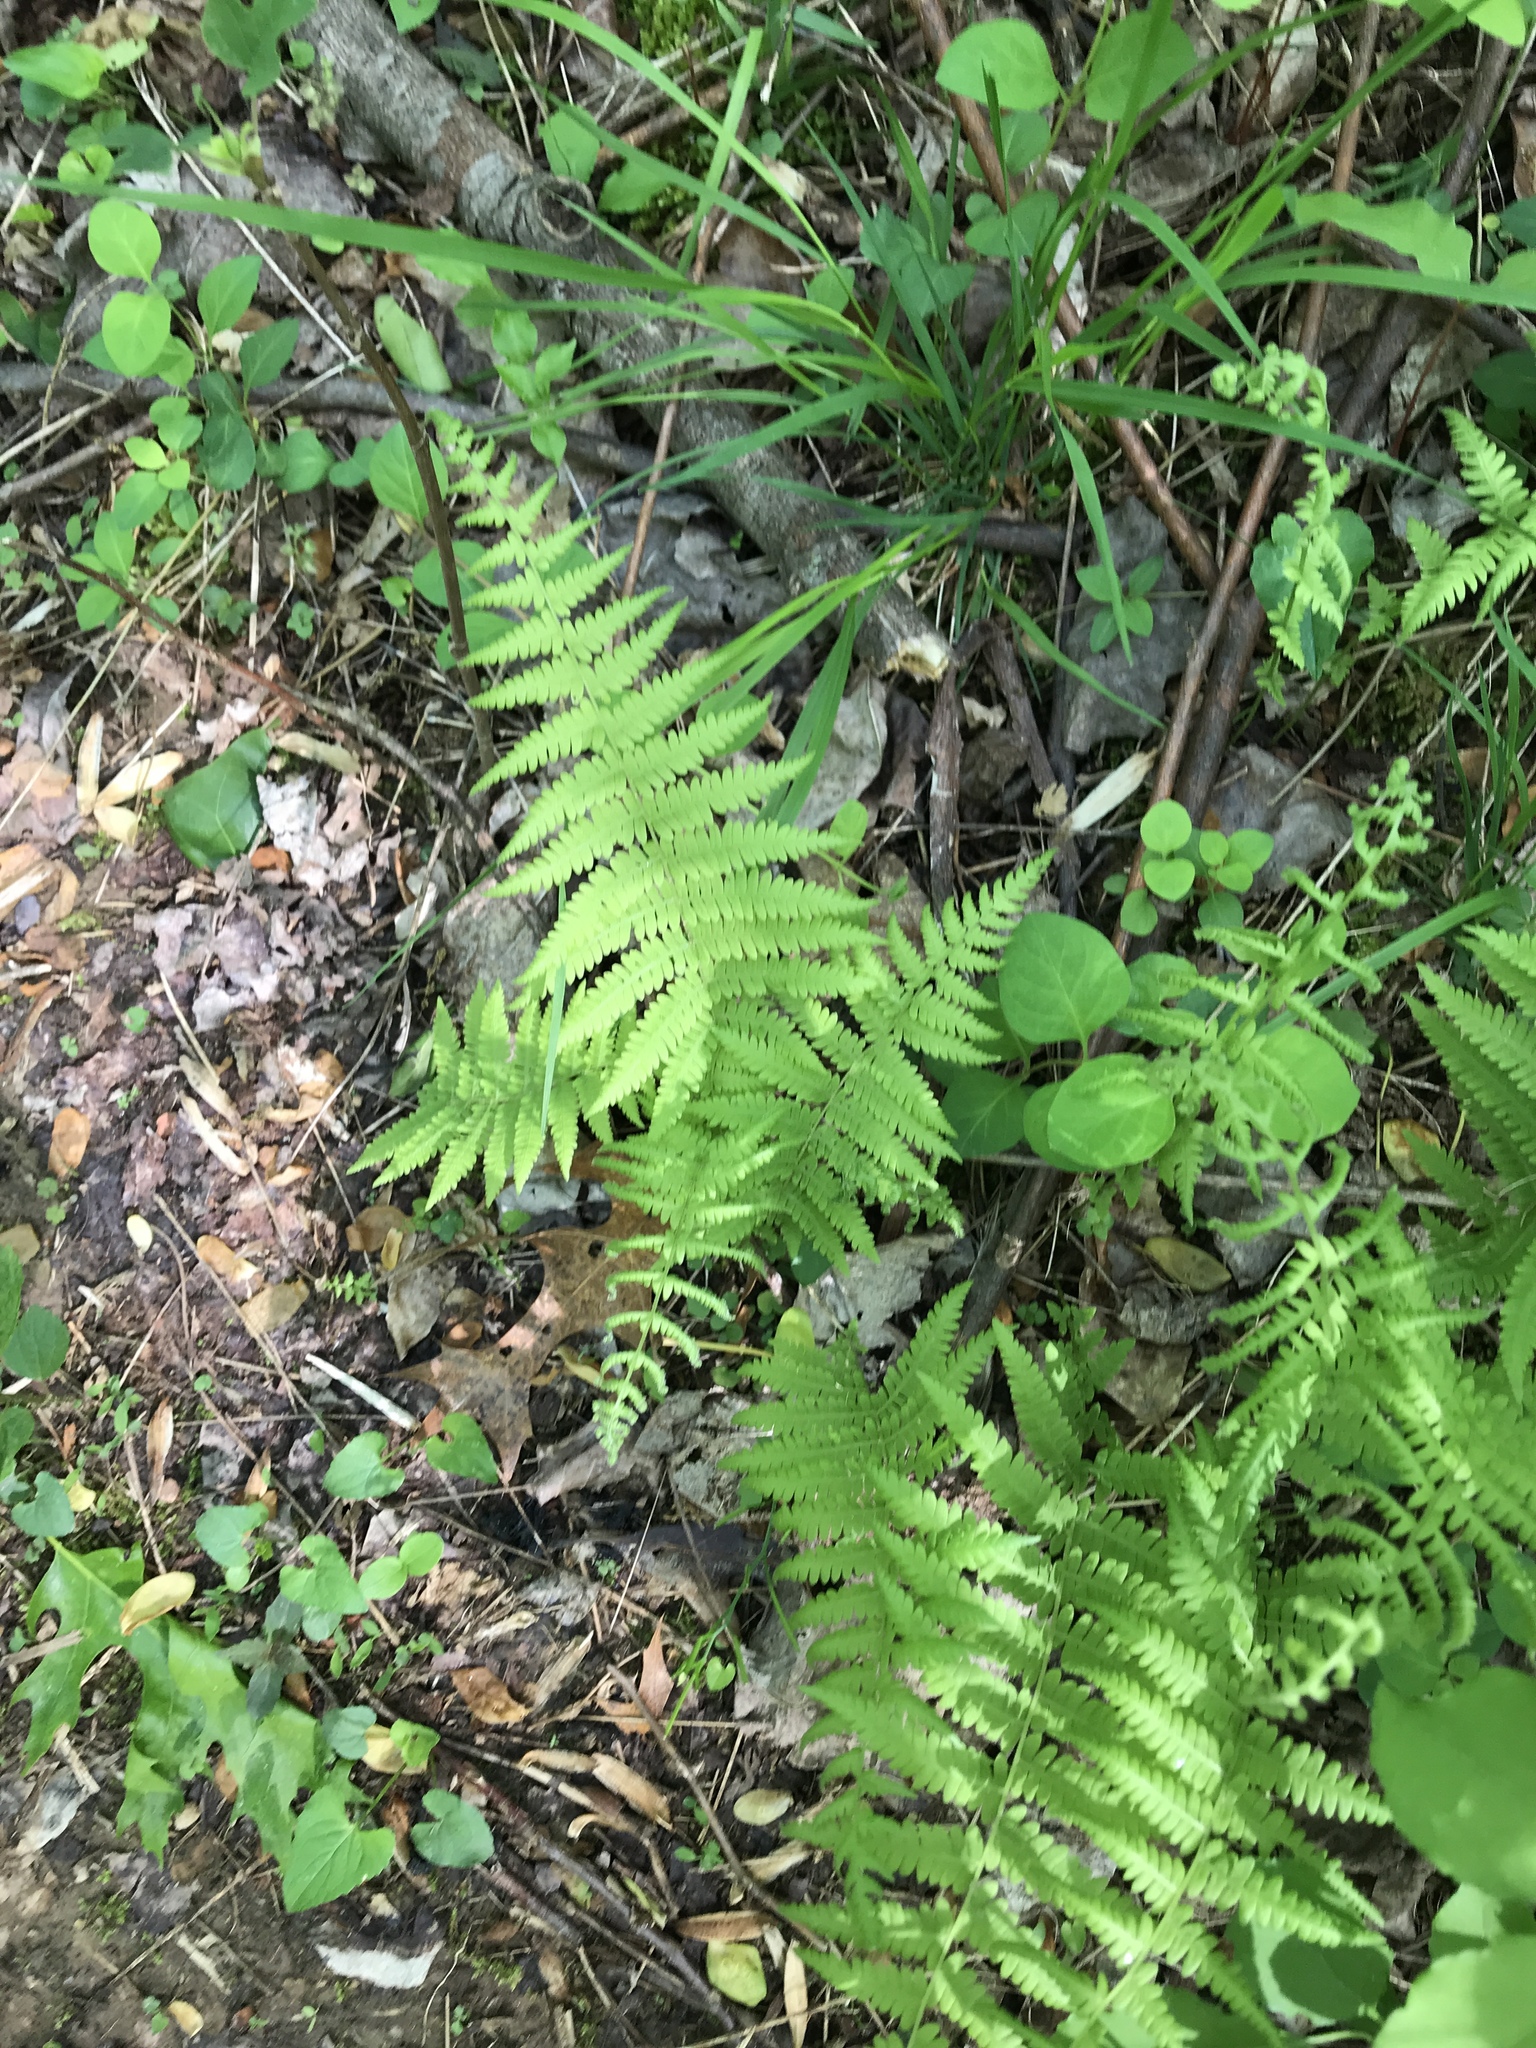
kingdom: Plantae
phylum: Tracheophyta
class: Polypodiopsida
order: Polypodiales
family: Thelypteridaceae
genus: Amauropelta
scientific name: Amauropelta noveboracensis
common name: New york fern
